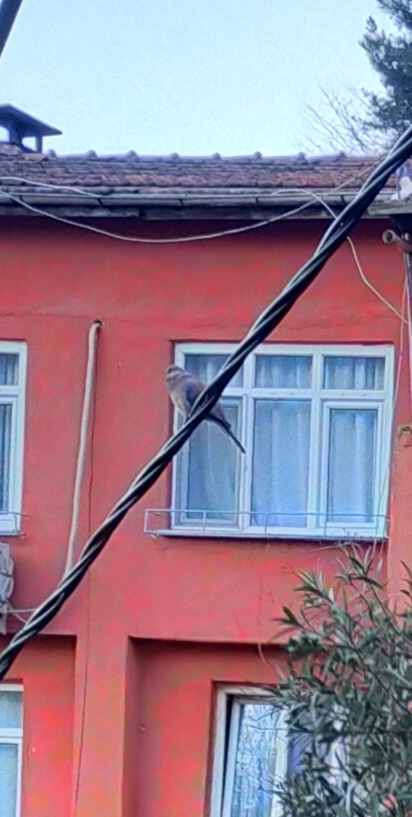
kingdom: Animalia
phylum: Chordata
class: Aves
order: Columbiformes
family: Columbidae
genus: Spilopelia
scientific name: Spilopelia senegalensis
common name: Laughing dove
